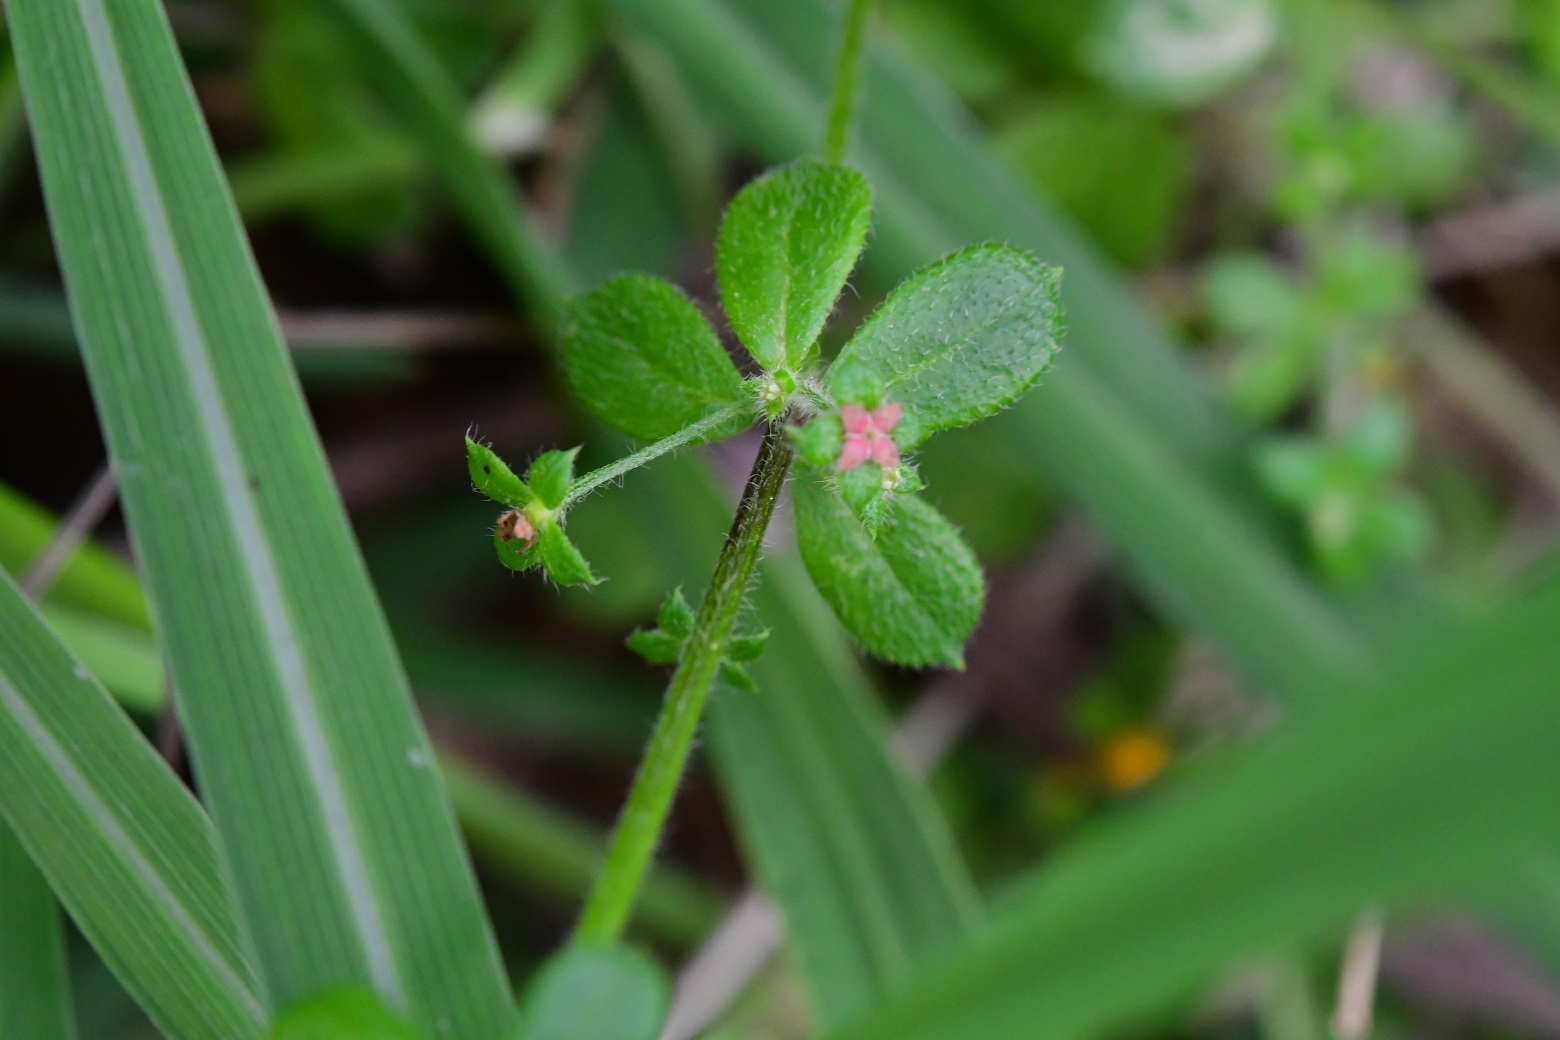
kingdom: Plantae
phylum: Tracheophyta
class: Magnoliopsida
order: Gentianales
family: Rubiaceae
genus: Galium
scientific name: Galium hypocarpium
